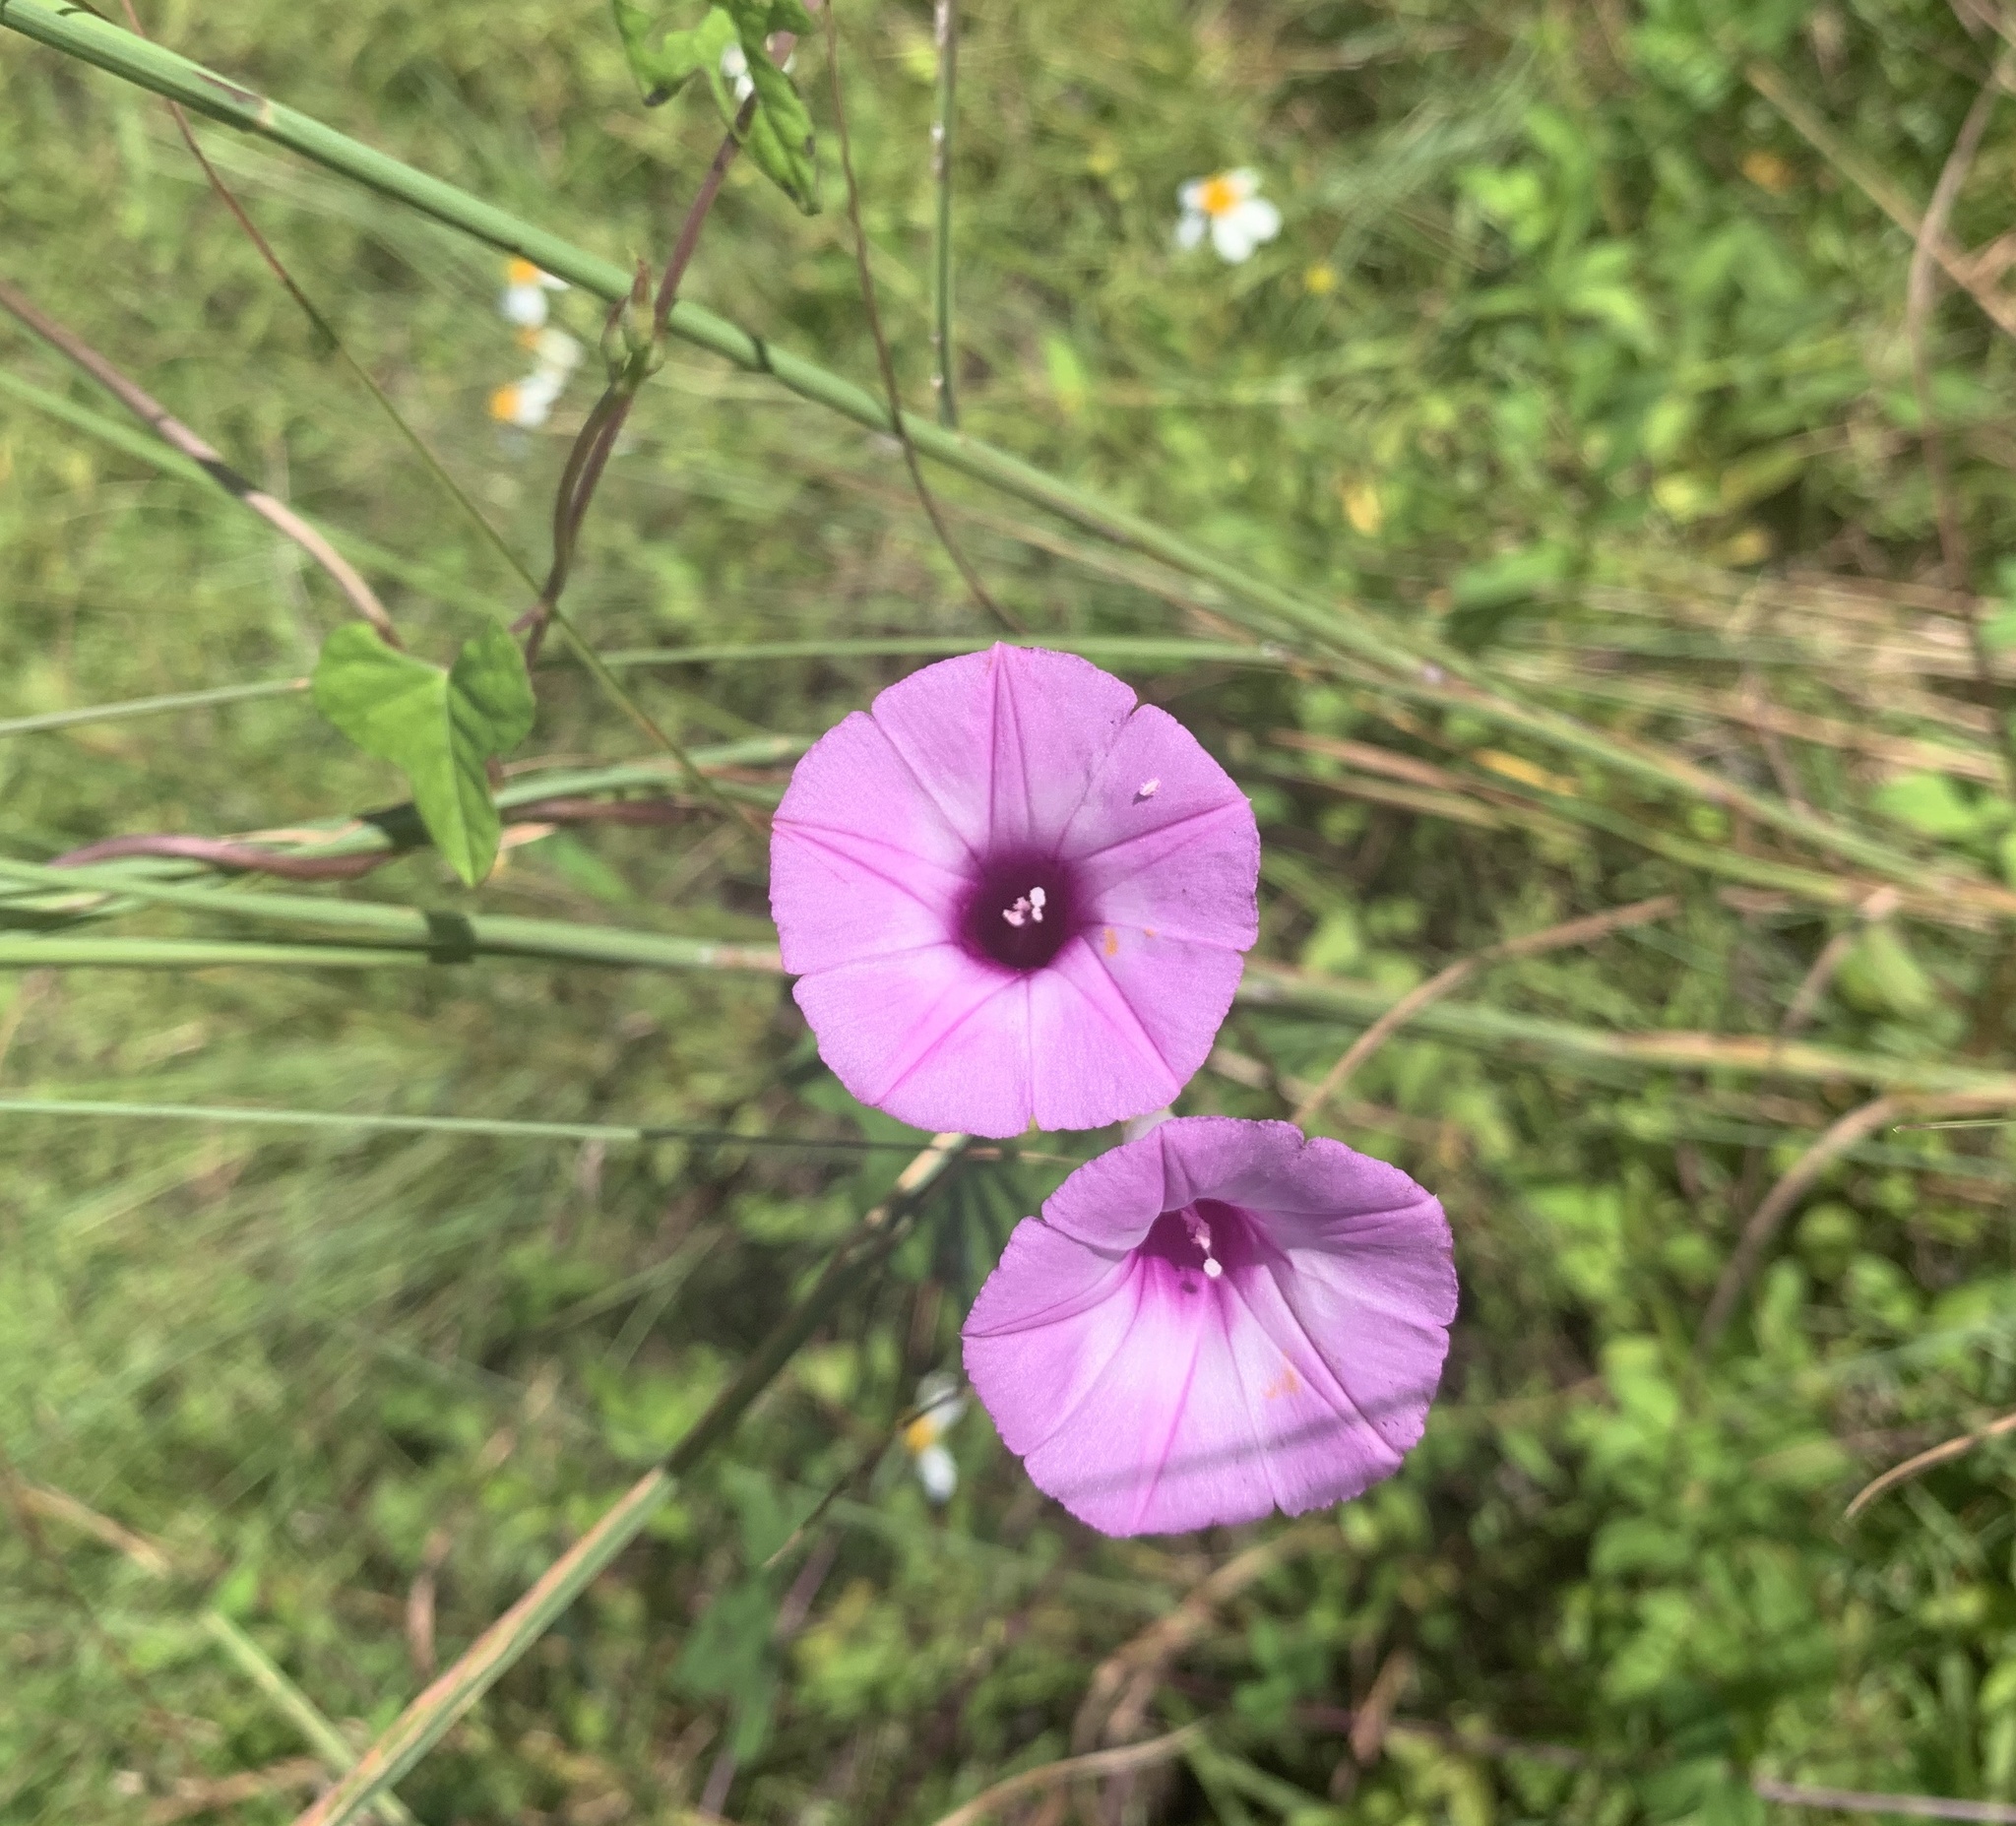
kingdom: Plantae
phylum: Tracheophyta
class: Magnoliopsida
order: Solanales
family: Convolvulaceae
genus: Ipomoea
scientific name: Ipomoea cordatotriloba
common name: Cotton morning glory
